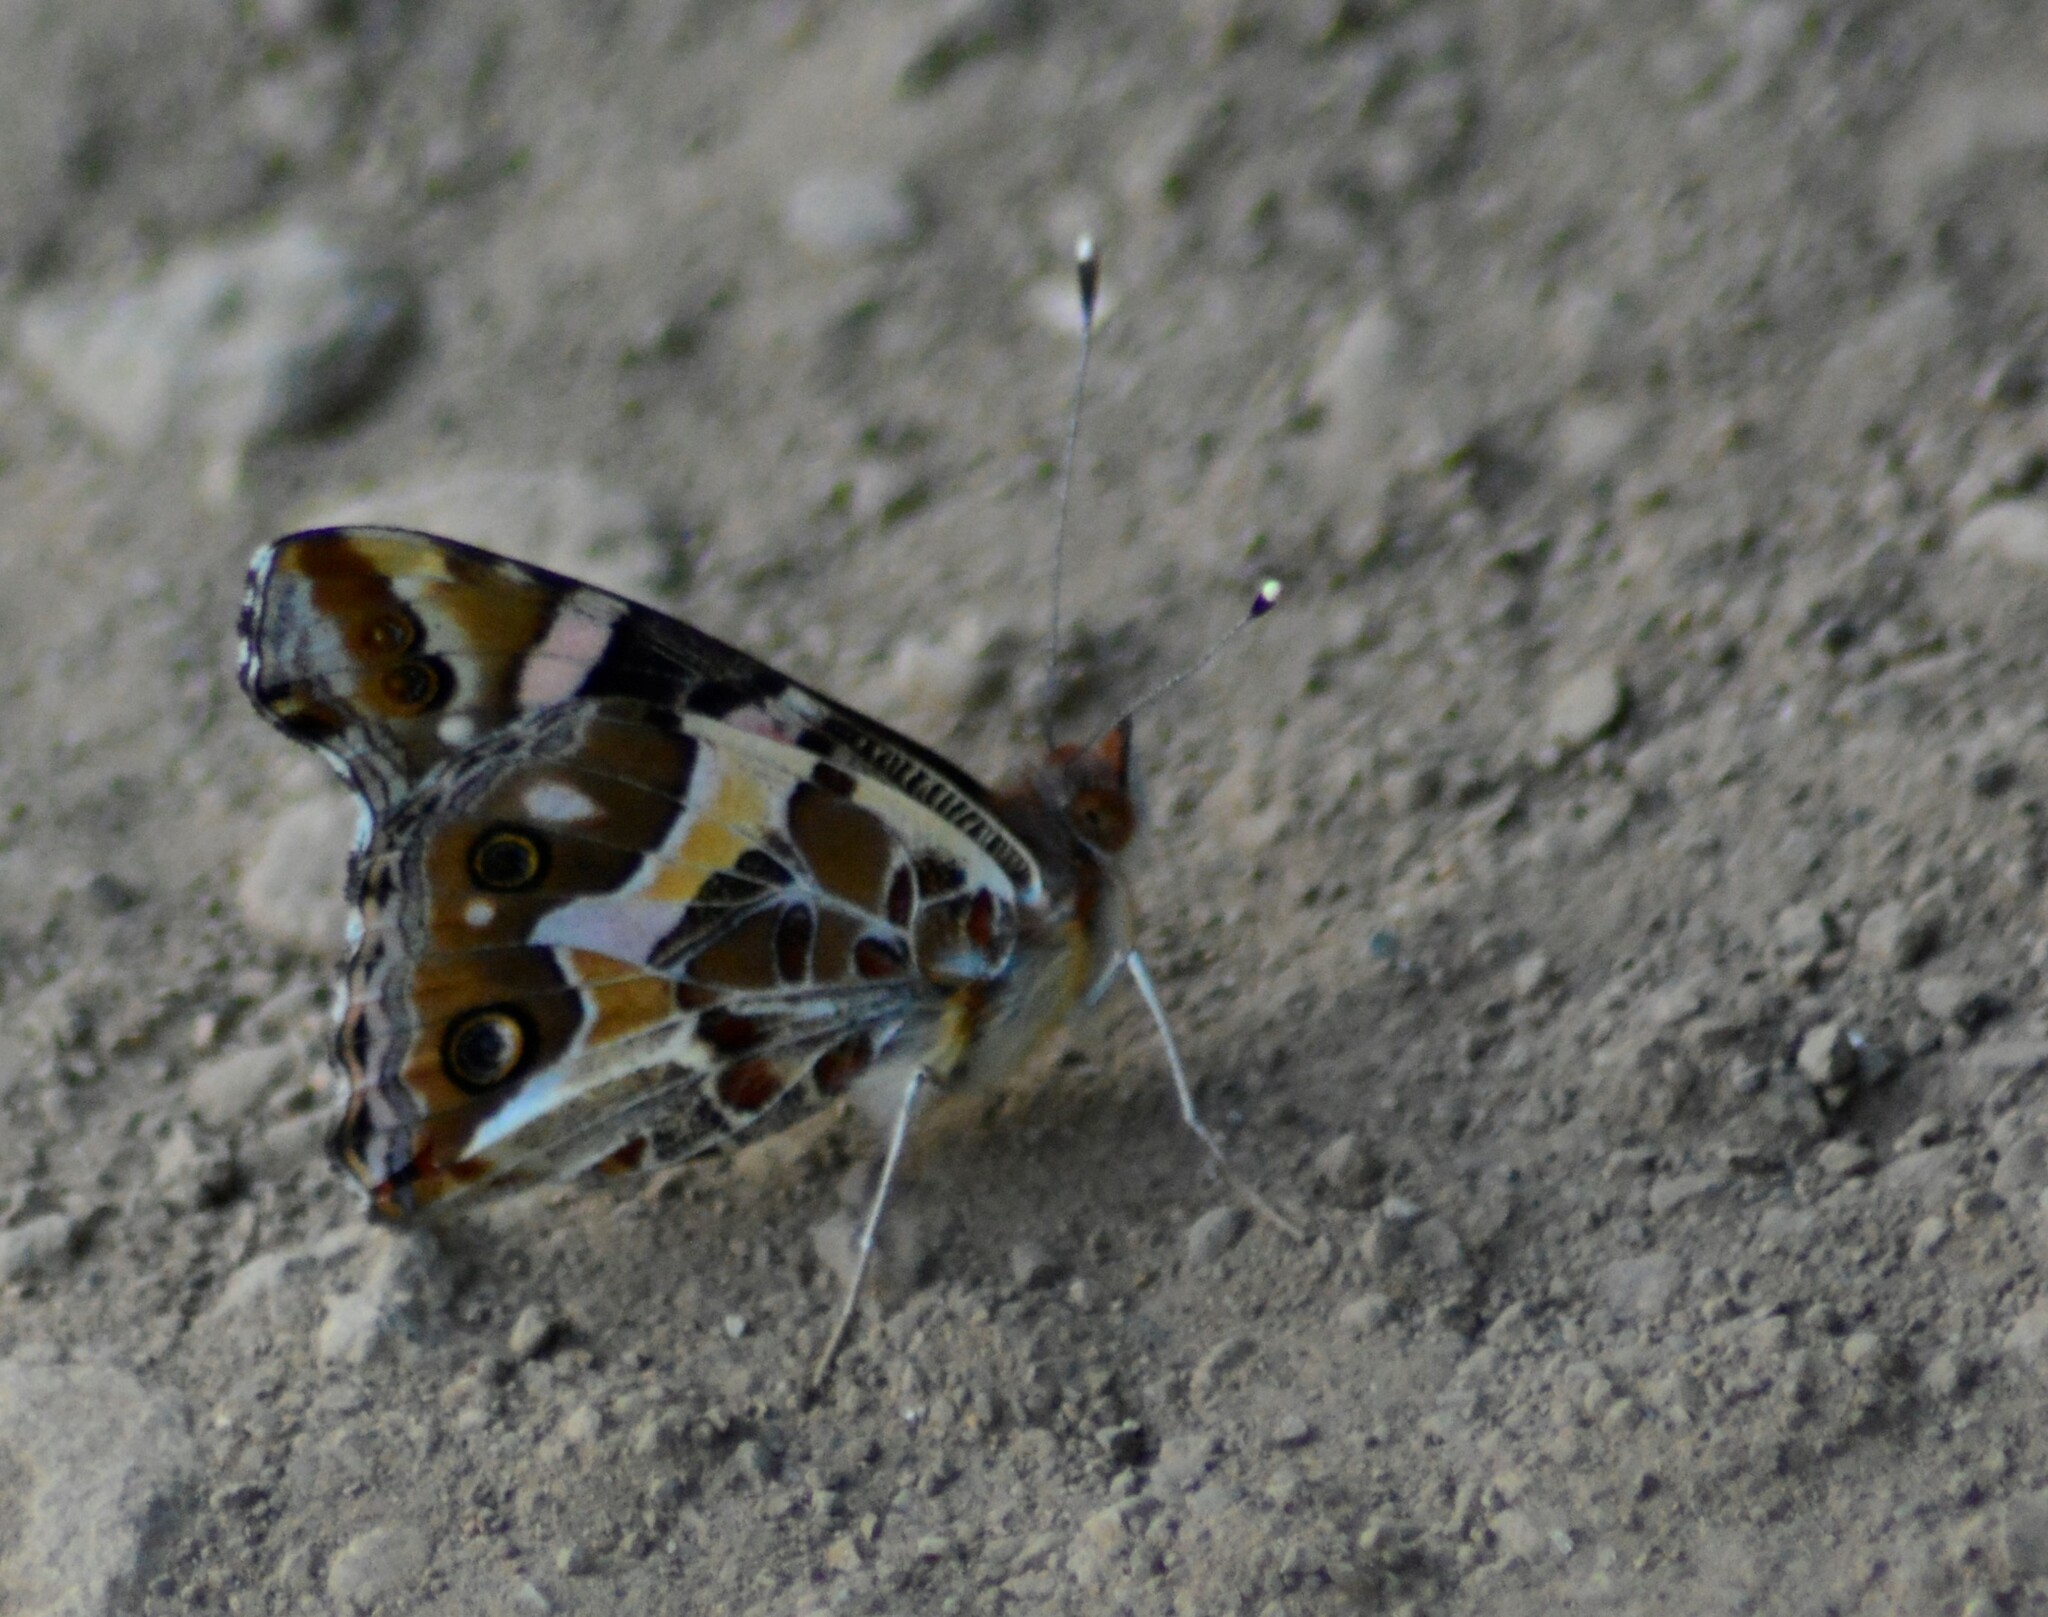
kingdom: Animalia
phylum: Arthropoda
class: Insecta
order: Lepidoptera
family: Nymphalidae
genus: Vanessa
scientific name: Vanessa terpsichore
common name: Chilean lady
